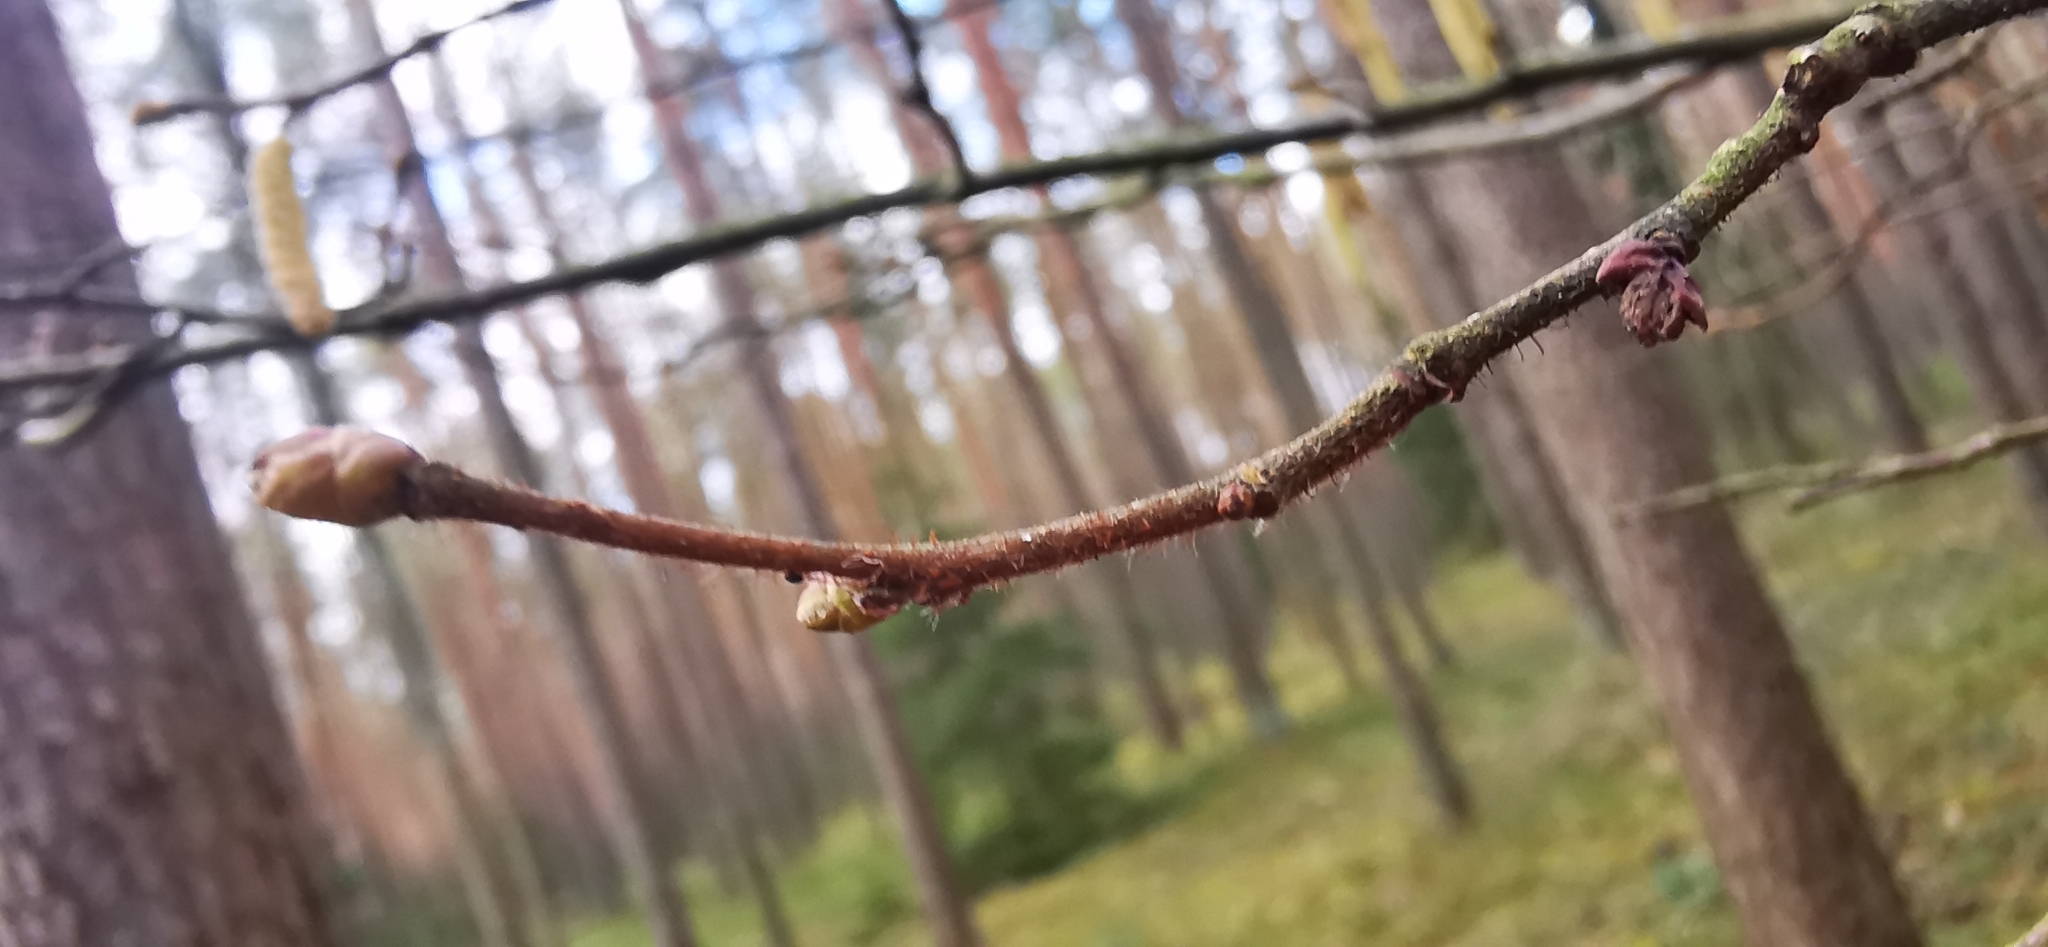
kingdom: Plantae
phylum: Tracheophyta
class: Magnoliopsida
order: Fagales
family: Betulaceae
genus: Corylus
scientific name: Corylus avellana
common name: European hazel
